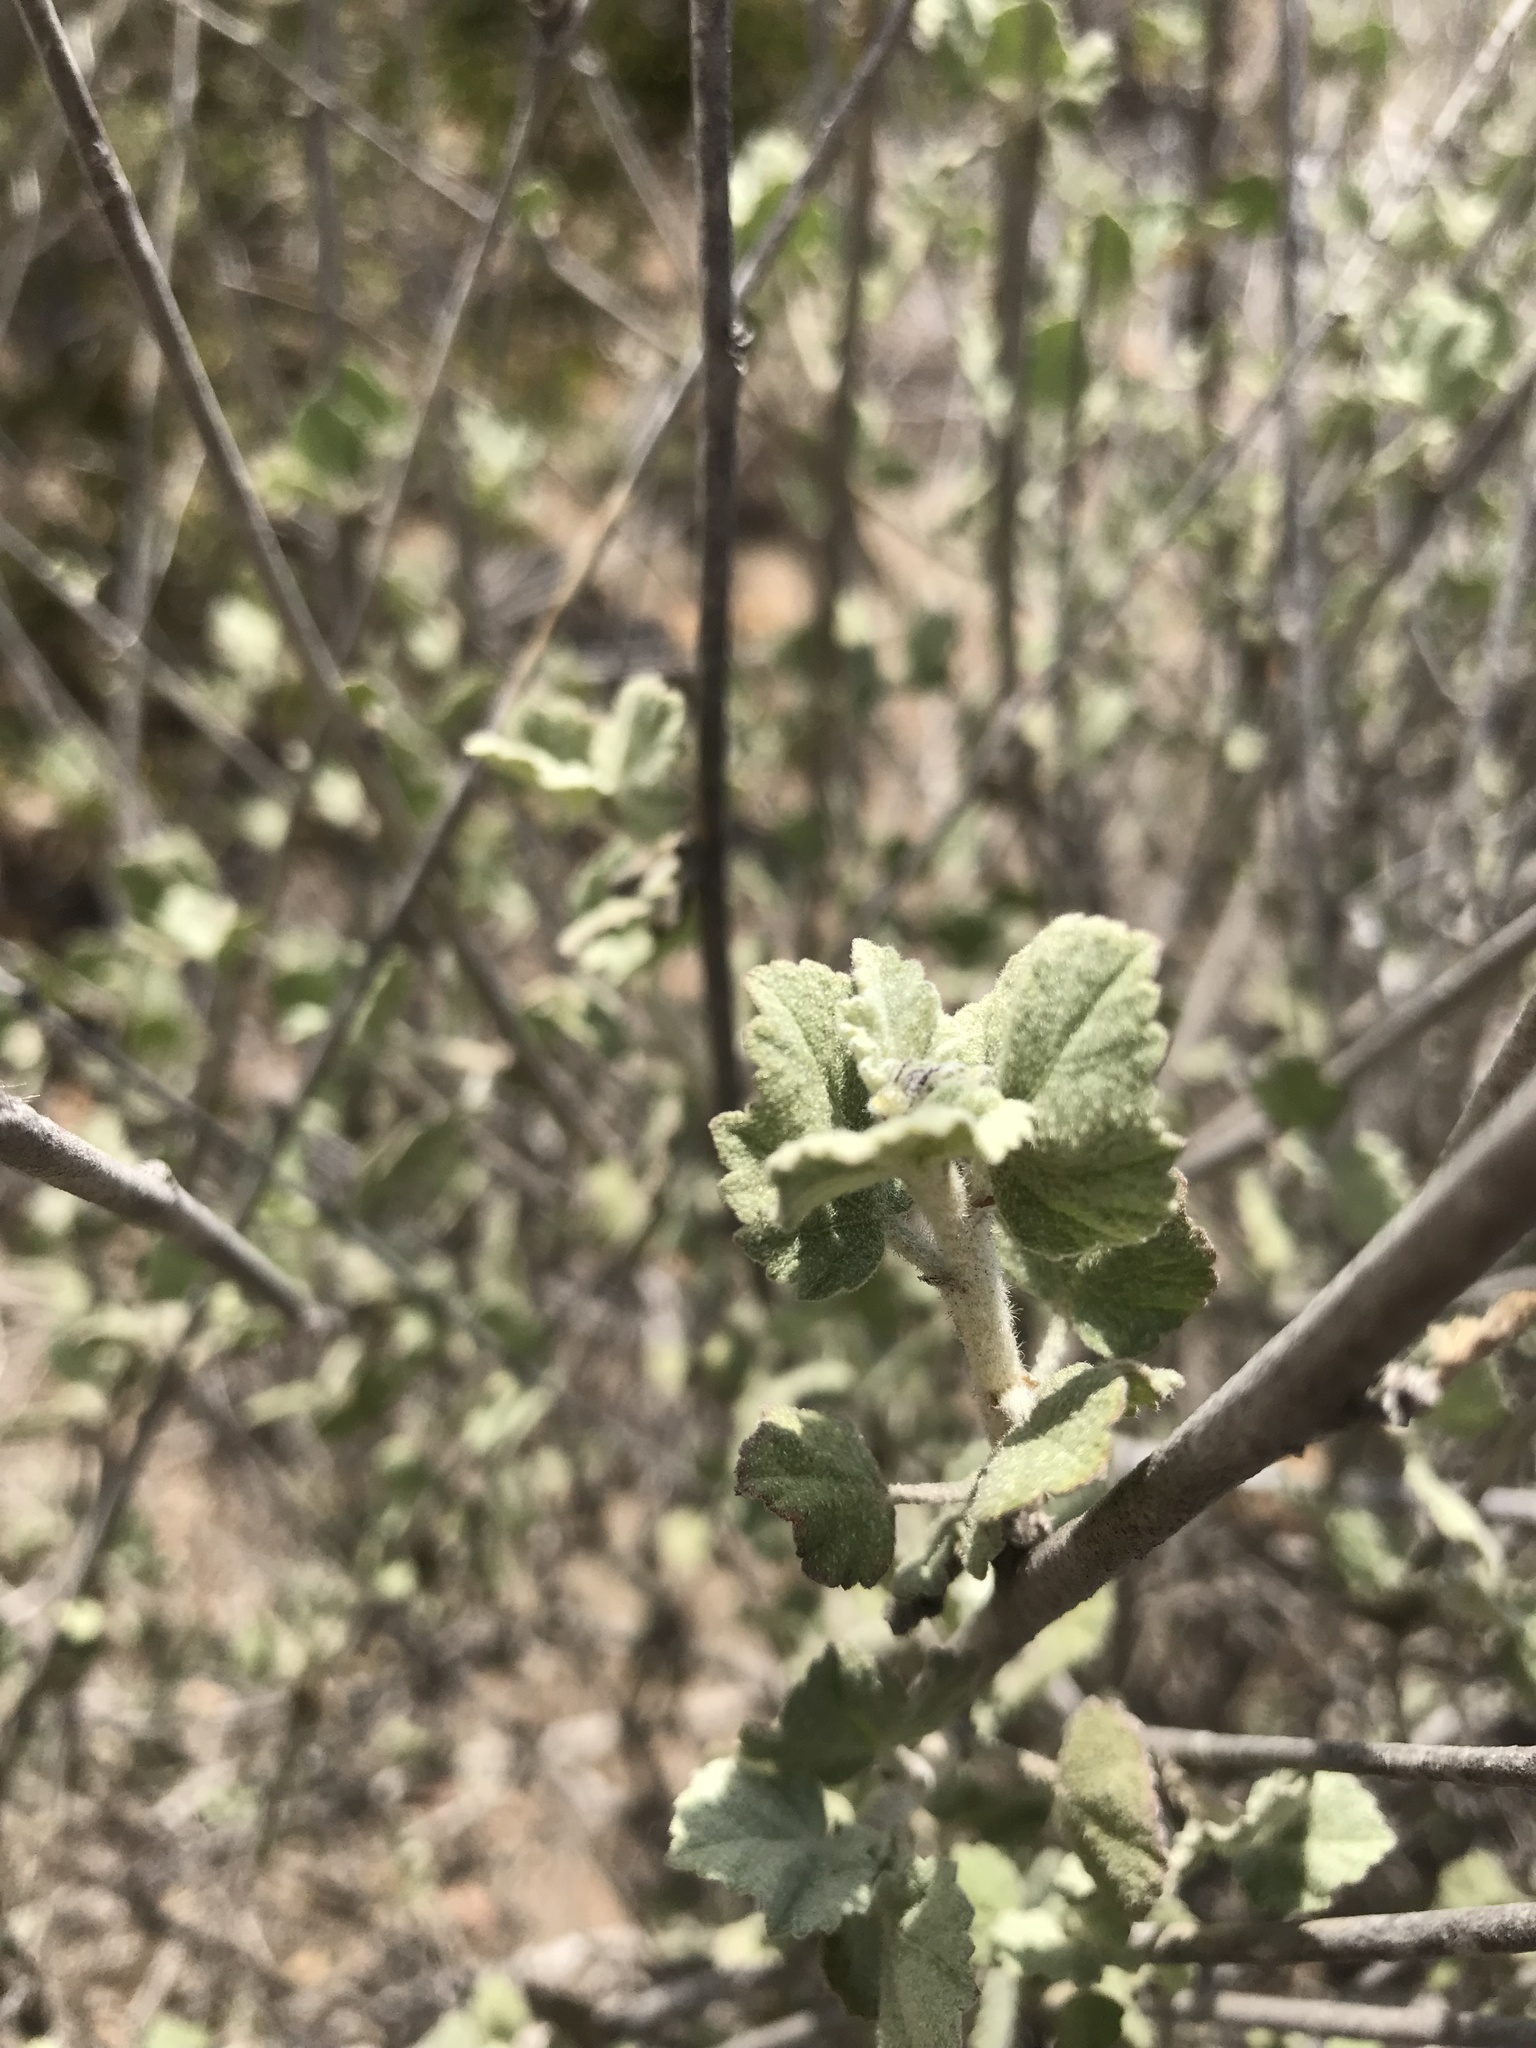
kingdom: Plantae
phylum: Tracheophyta
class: Magnoliopsida
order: Malvales
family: Malvaceae
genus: Malacothamnus
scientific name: Malacothamnus fasciculatus
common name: Sant cruz island bush-mallow
